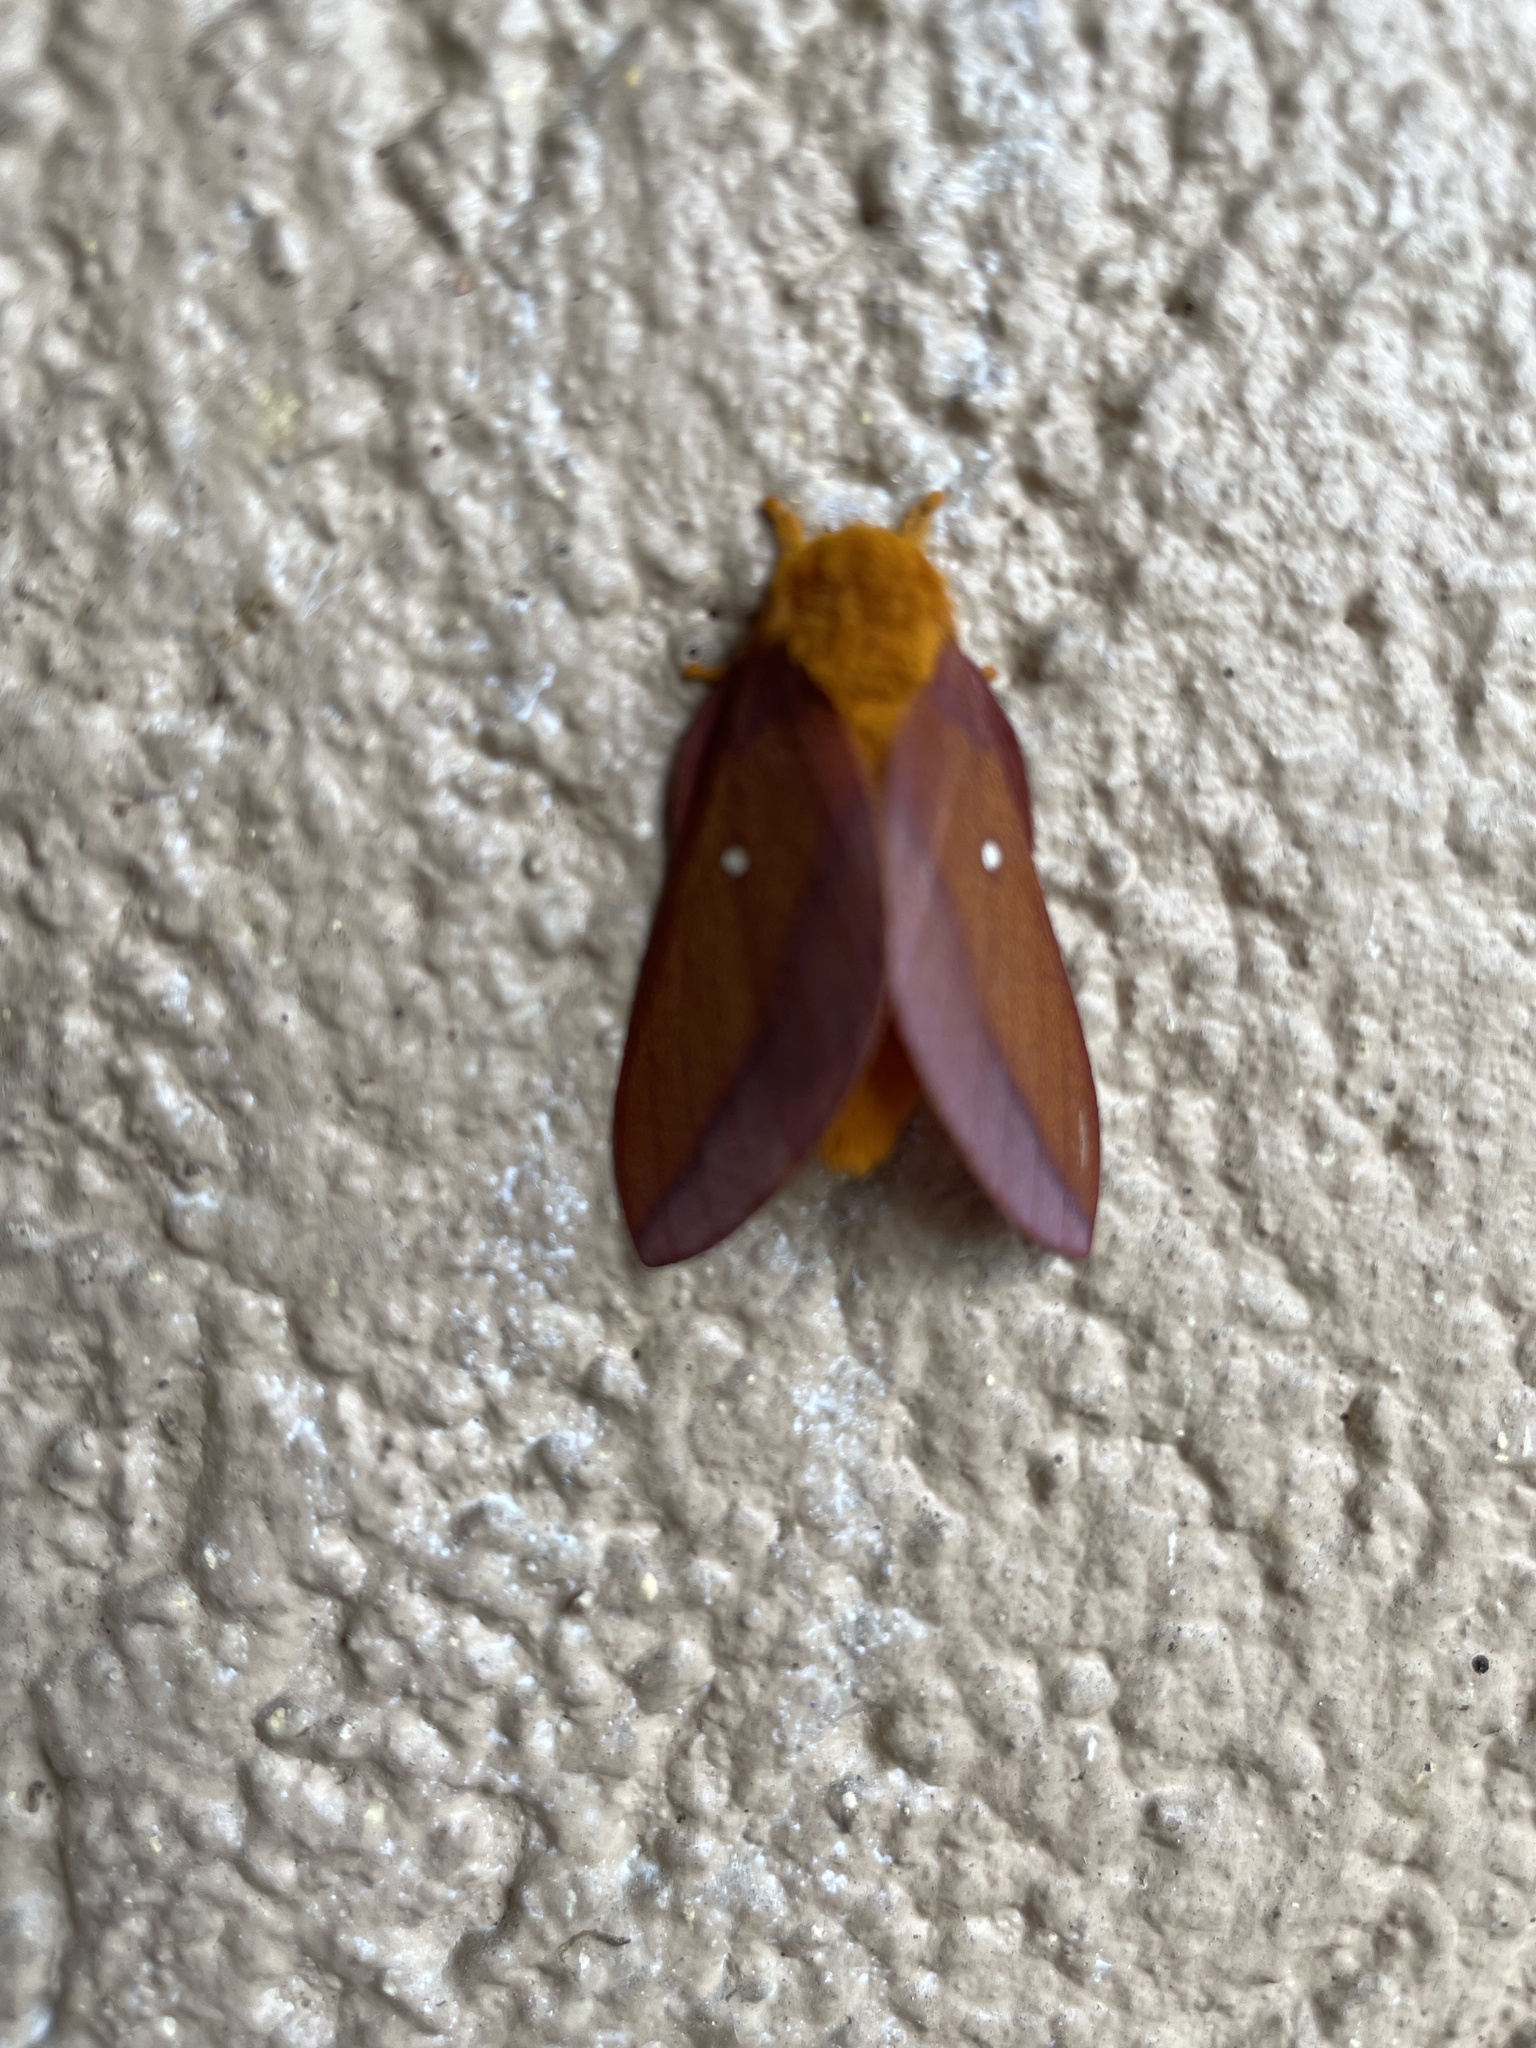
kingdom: Animalia
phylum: Arthropoda
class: Insecta
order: Lepidoptera
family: Saturniidae
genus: Anisota
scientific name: Anisota virginiensis
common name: Pink striped oakworm moth
